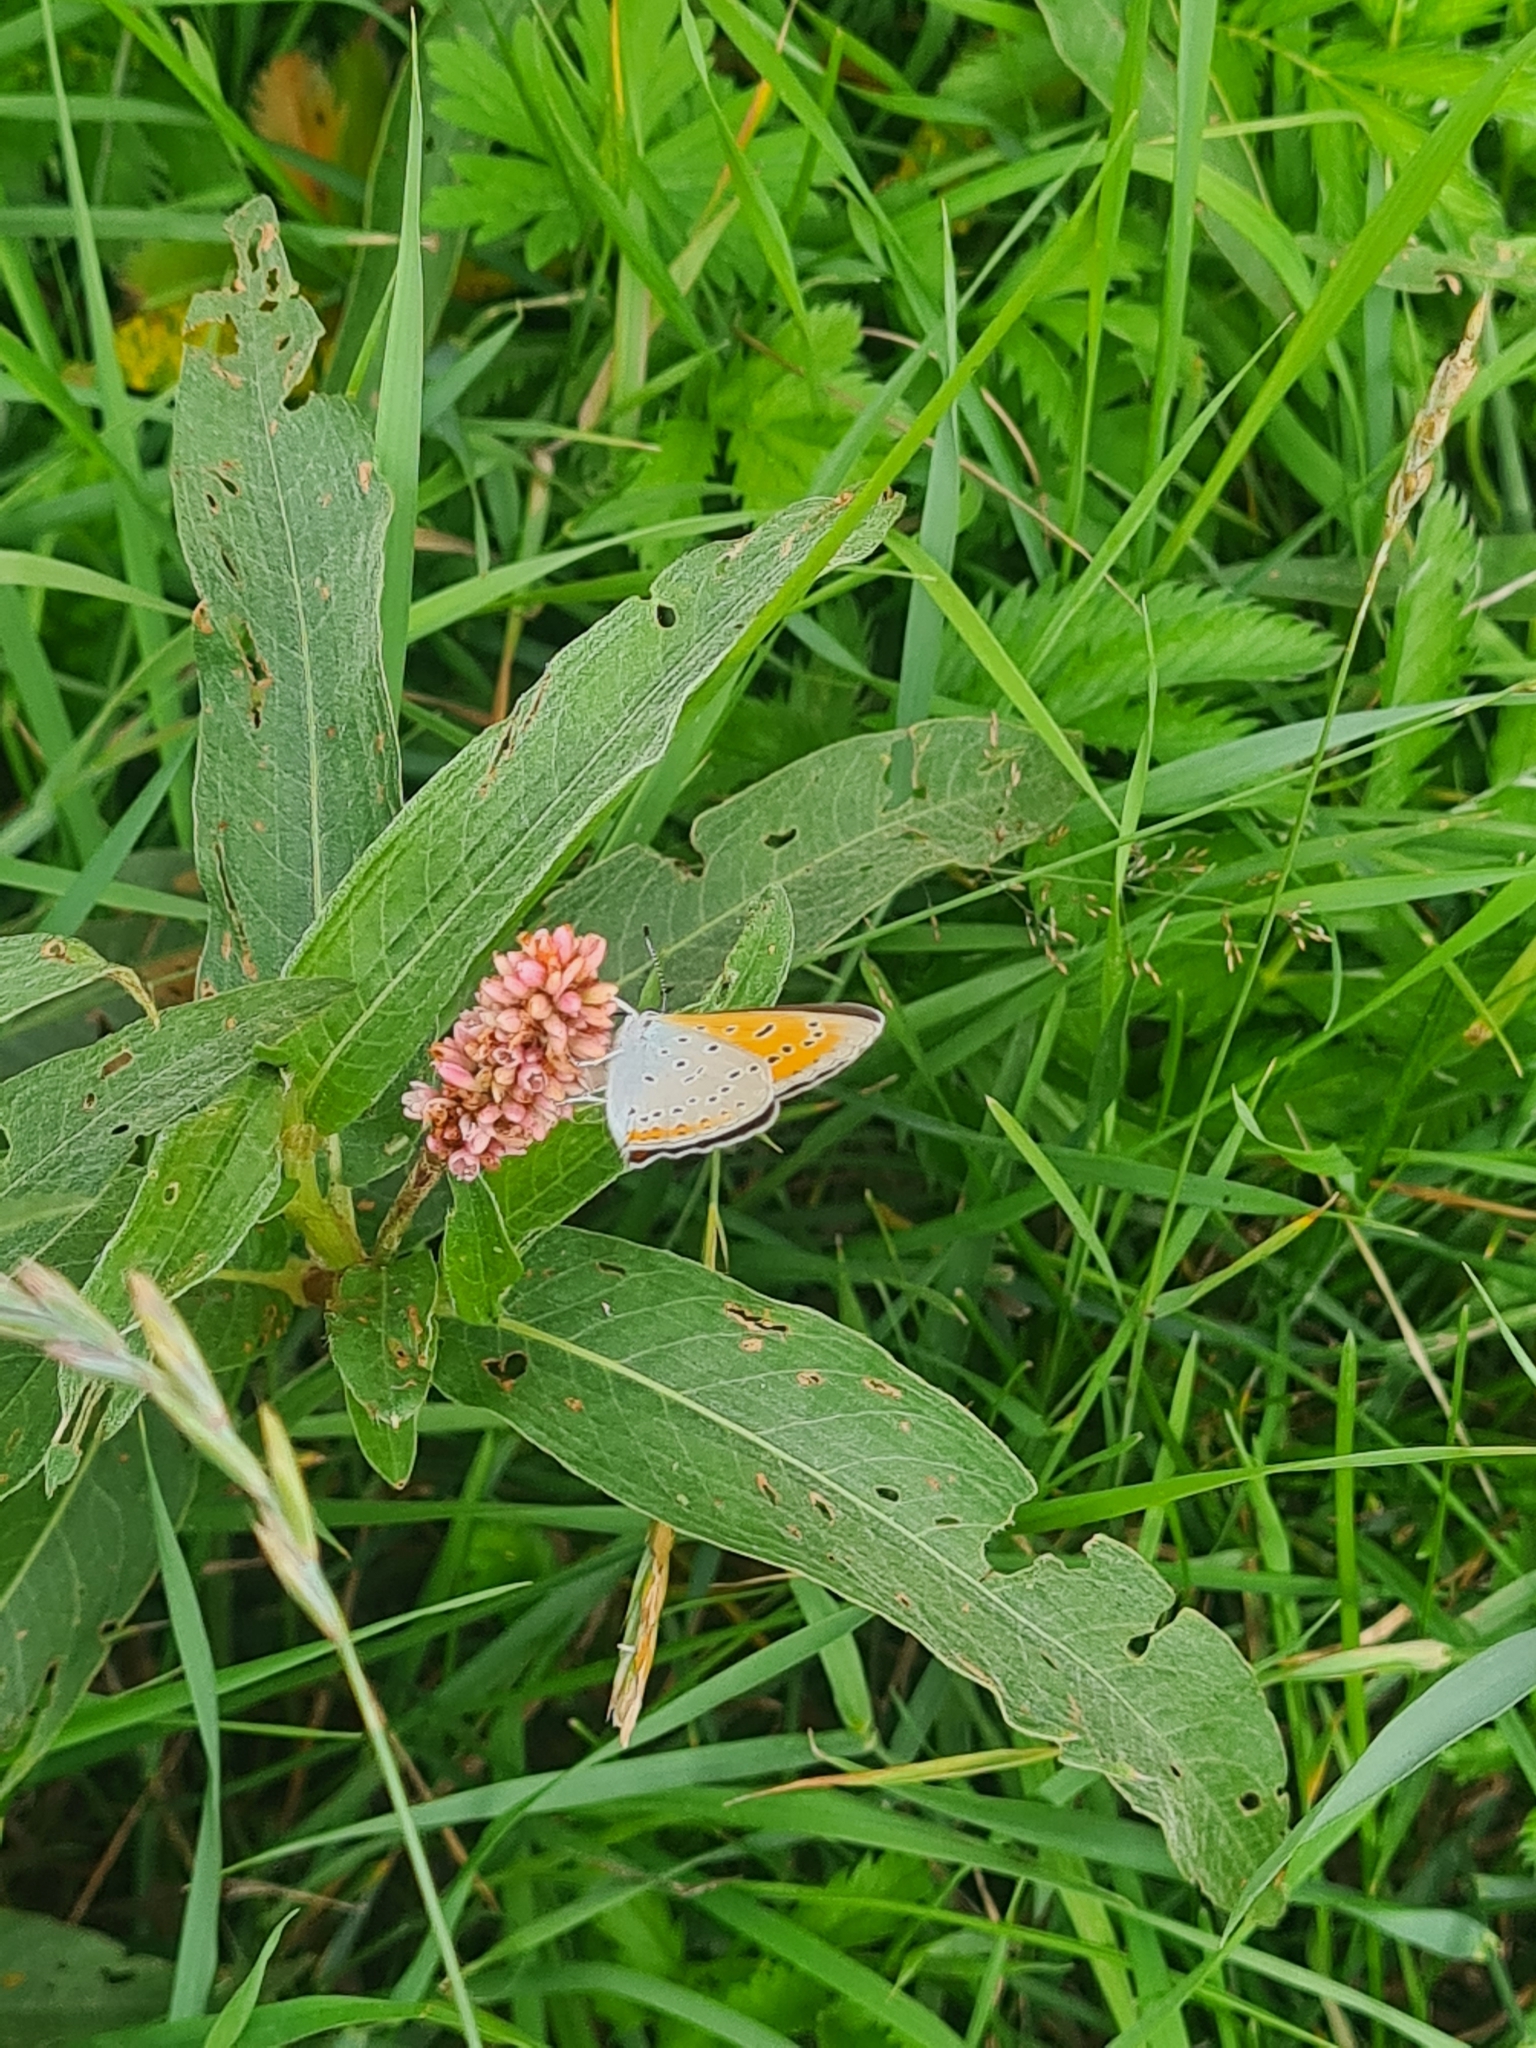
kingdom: Animalia
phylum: Arthropoda
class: Insecta
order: Lepidoptera
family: Lycaenidae
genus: Lycaena
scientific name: Lycaena dispar
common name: Large copper
